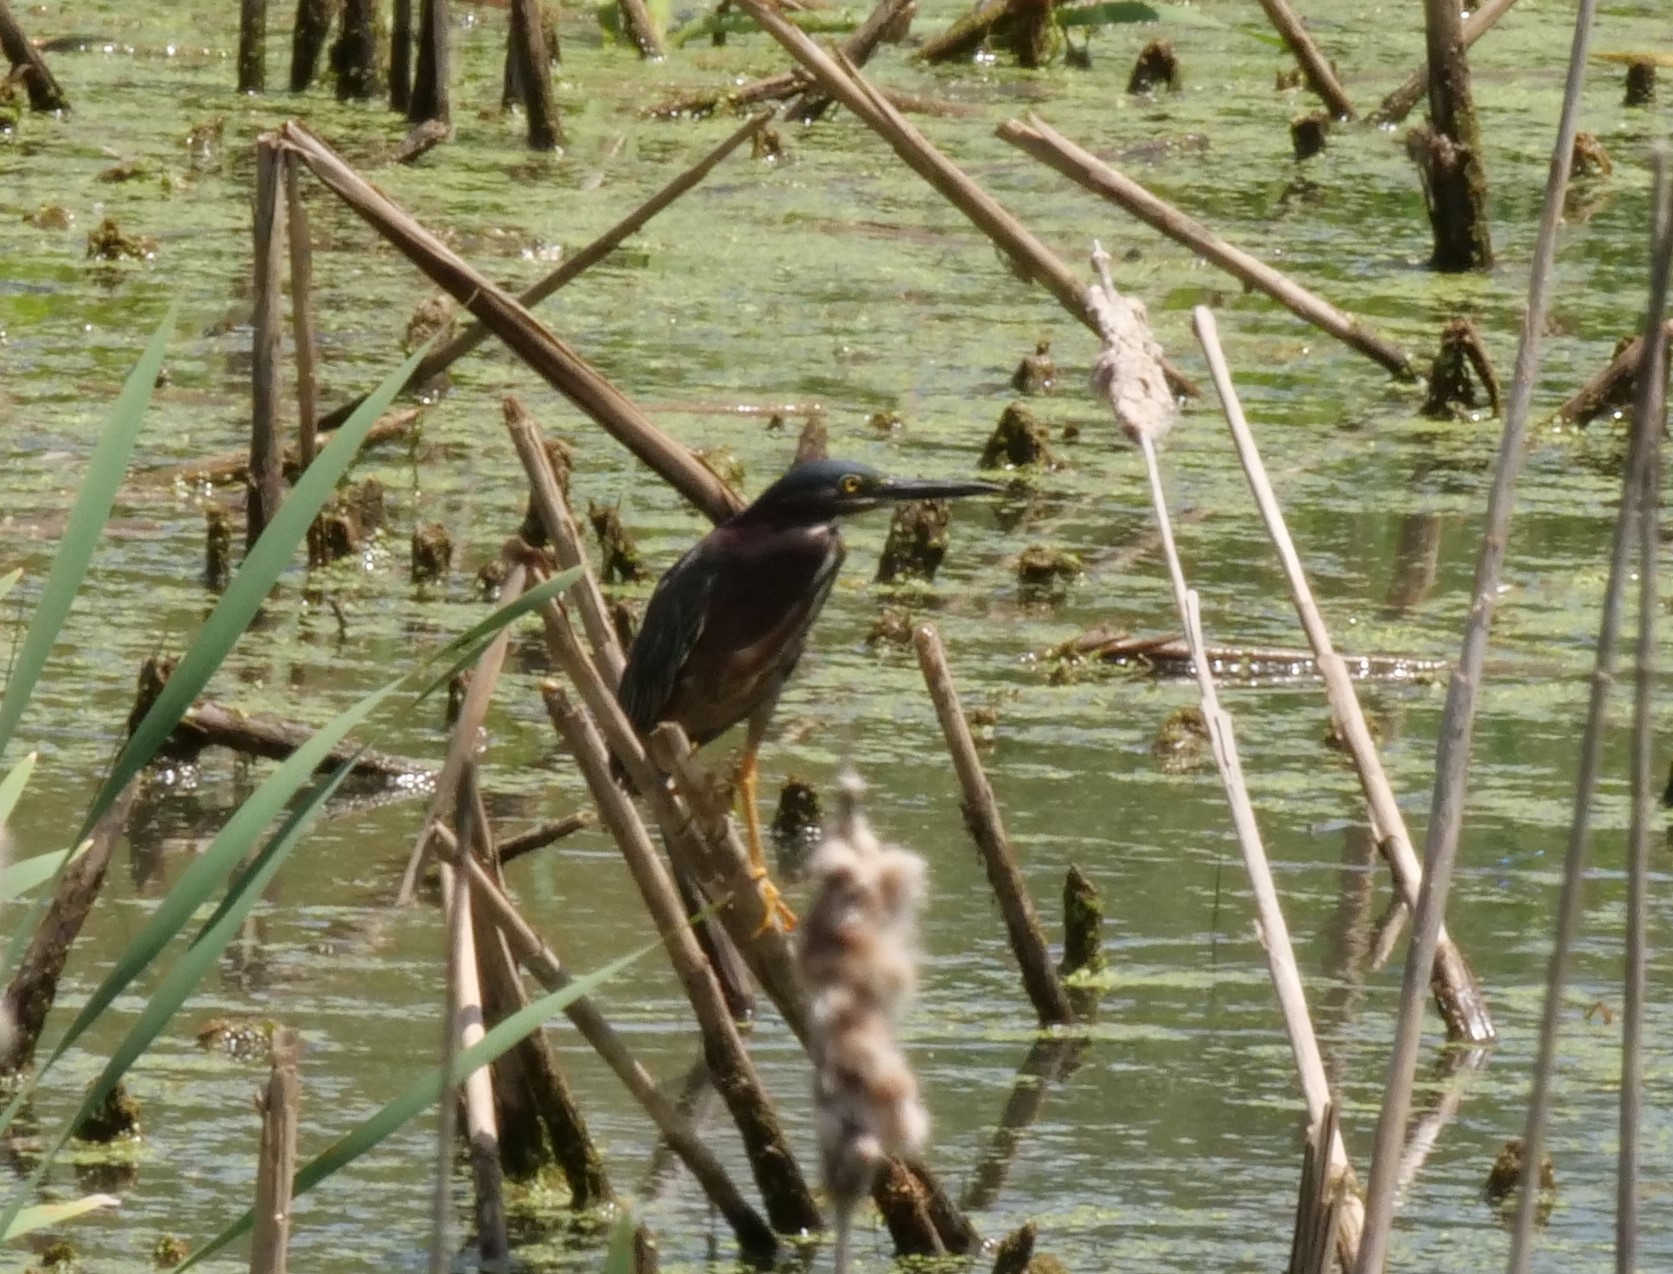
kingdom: Animalia
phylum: Chordata
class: Aves
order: Pelecaniformes
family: Ardeidae
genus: Butorides
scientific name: Butorides virescens
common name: Green heron
